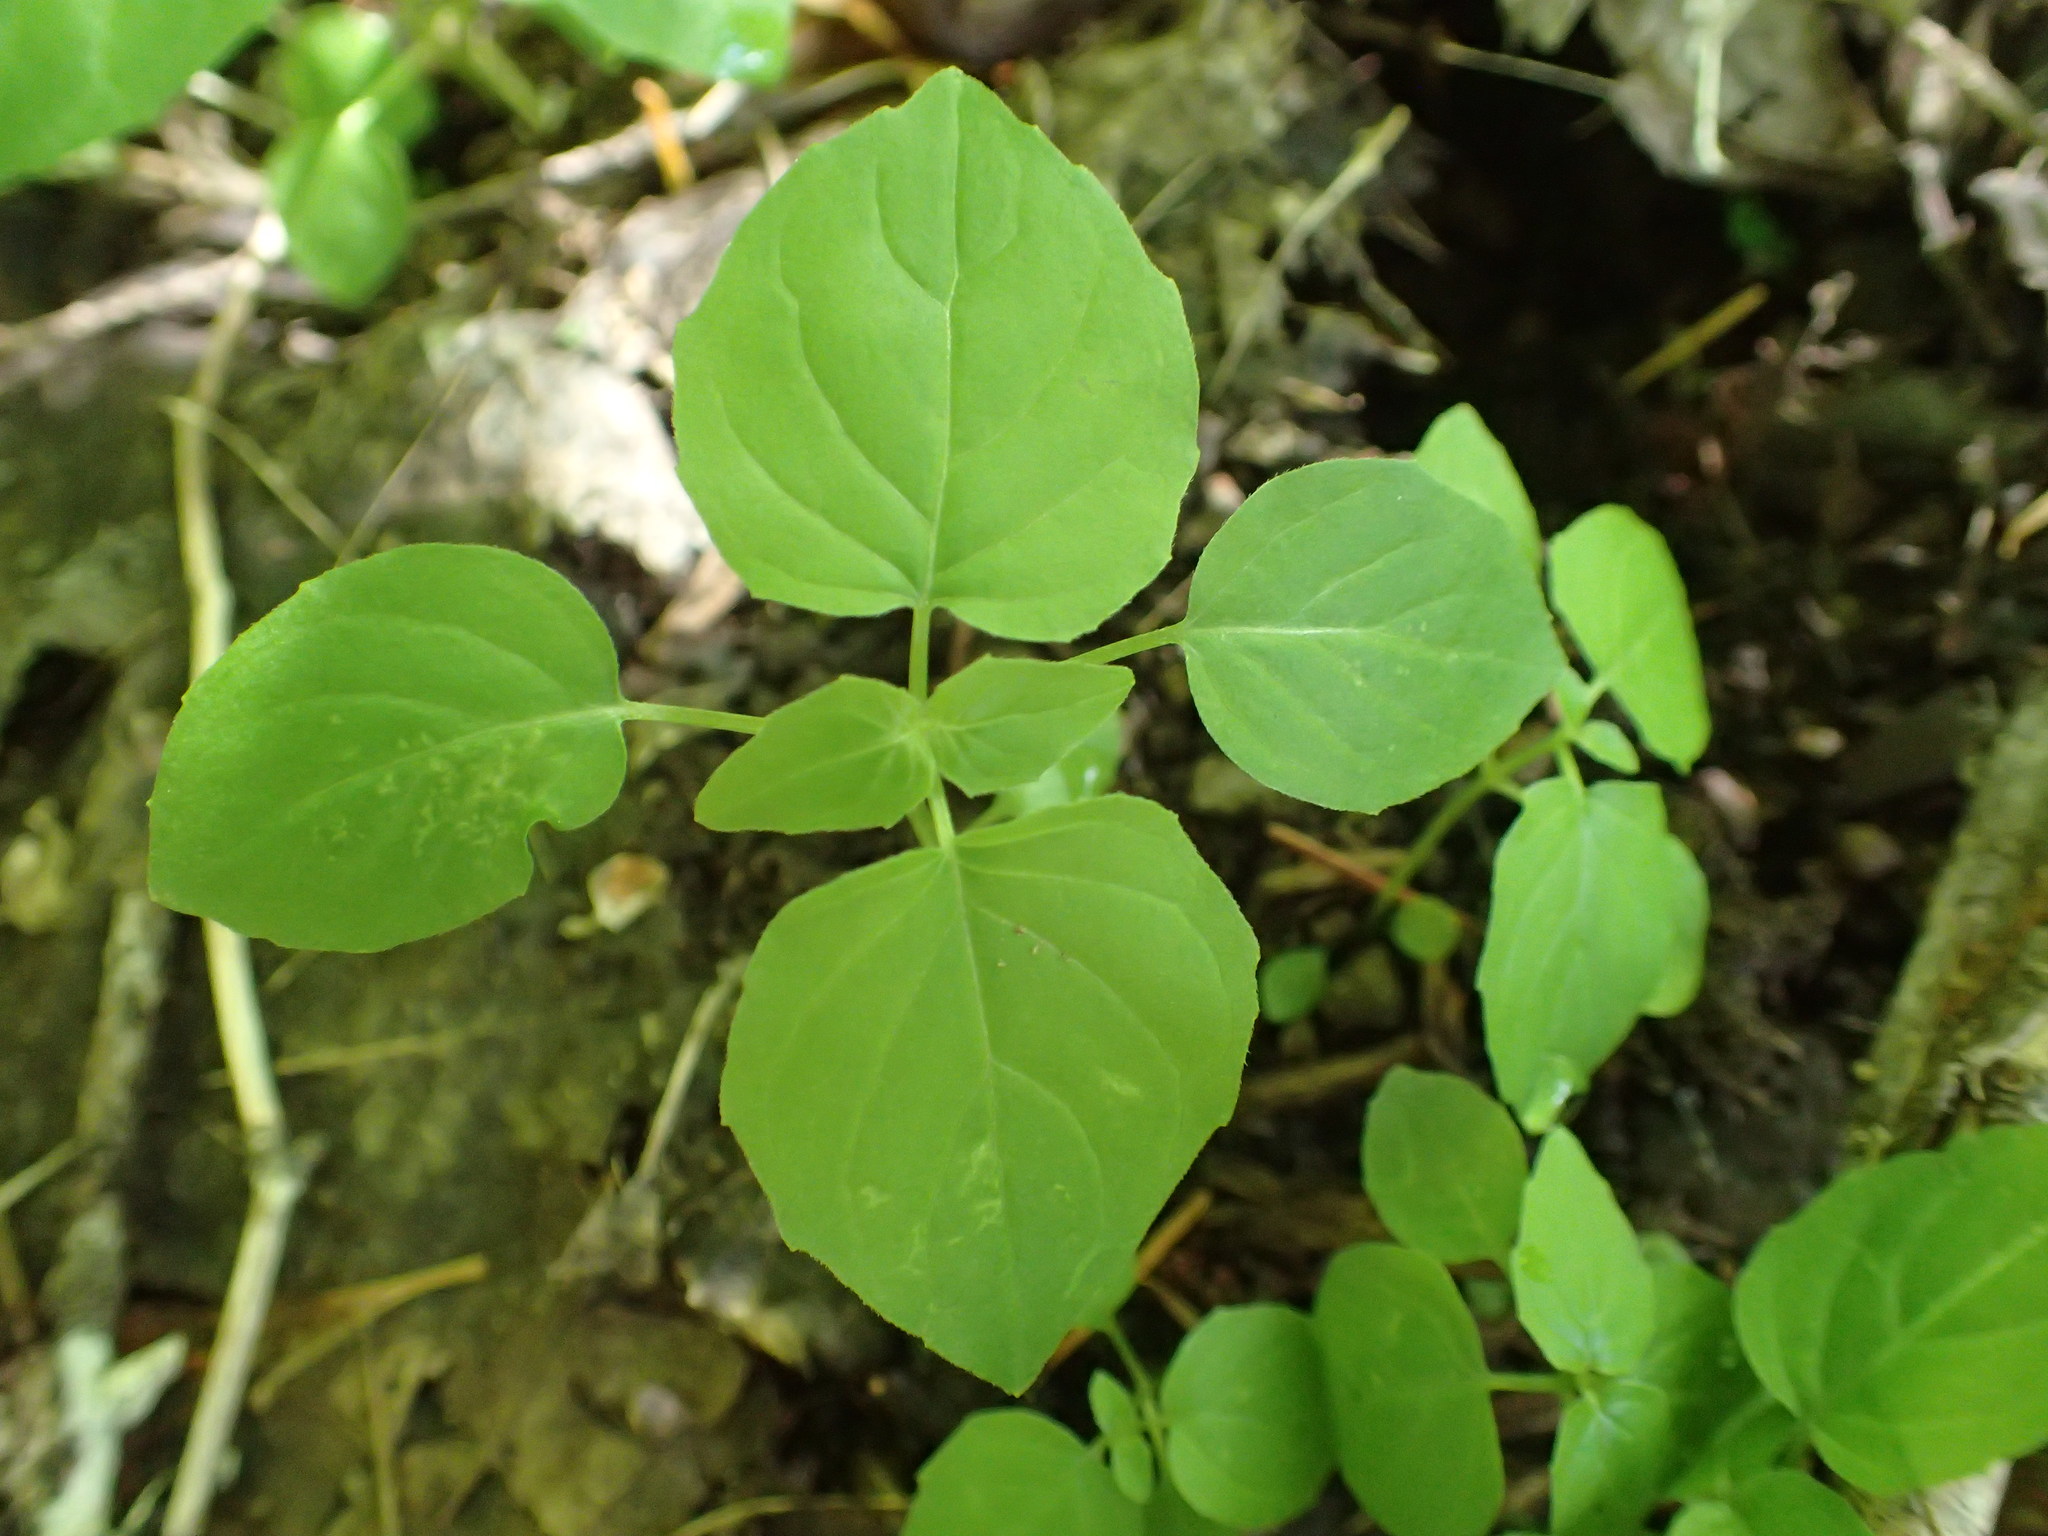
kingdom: Plantae
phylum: Tracheophyta
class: Magnoliopsida
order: Myrtales
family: Onagraceae
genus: Circaea
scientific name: Circaea alpina
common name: Alpine enchanter's-nightshade
